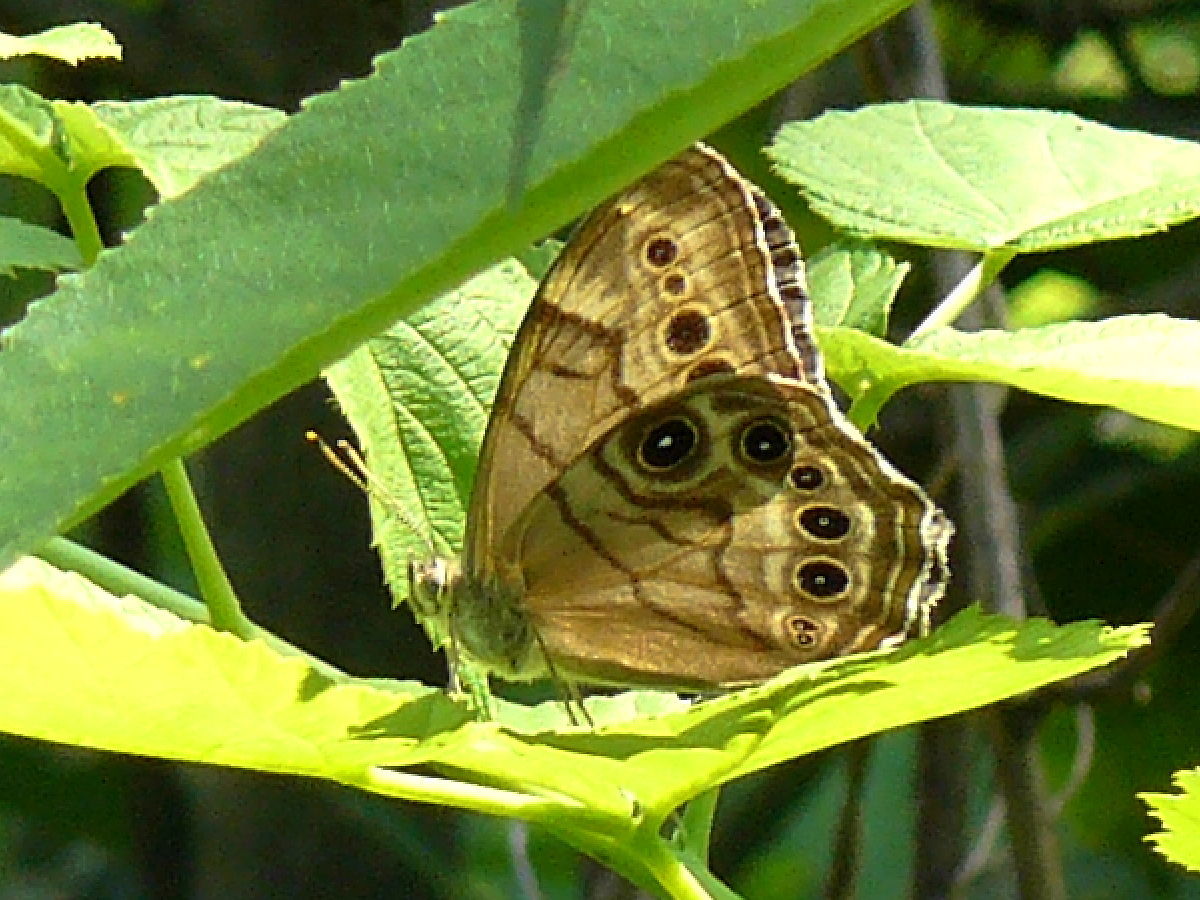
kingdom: Animalia
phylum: Arthropoda
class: Insecta
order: Lepidoptera
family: Nymphalidae
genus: Lethe
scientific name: Lethe anthedon
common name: Northern pearly-eye
